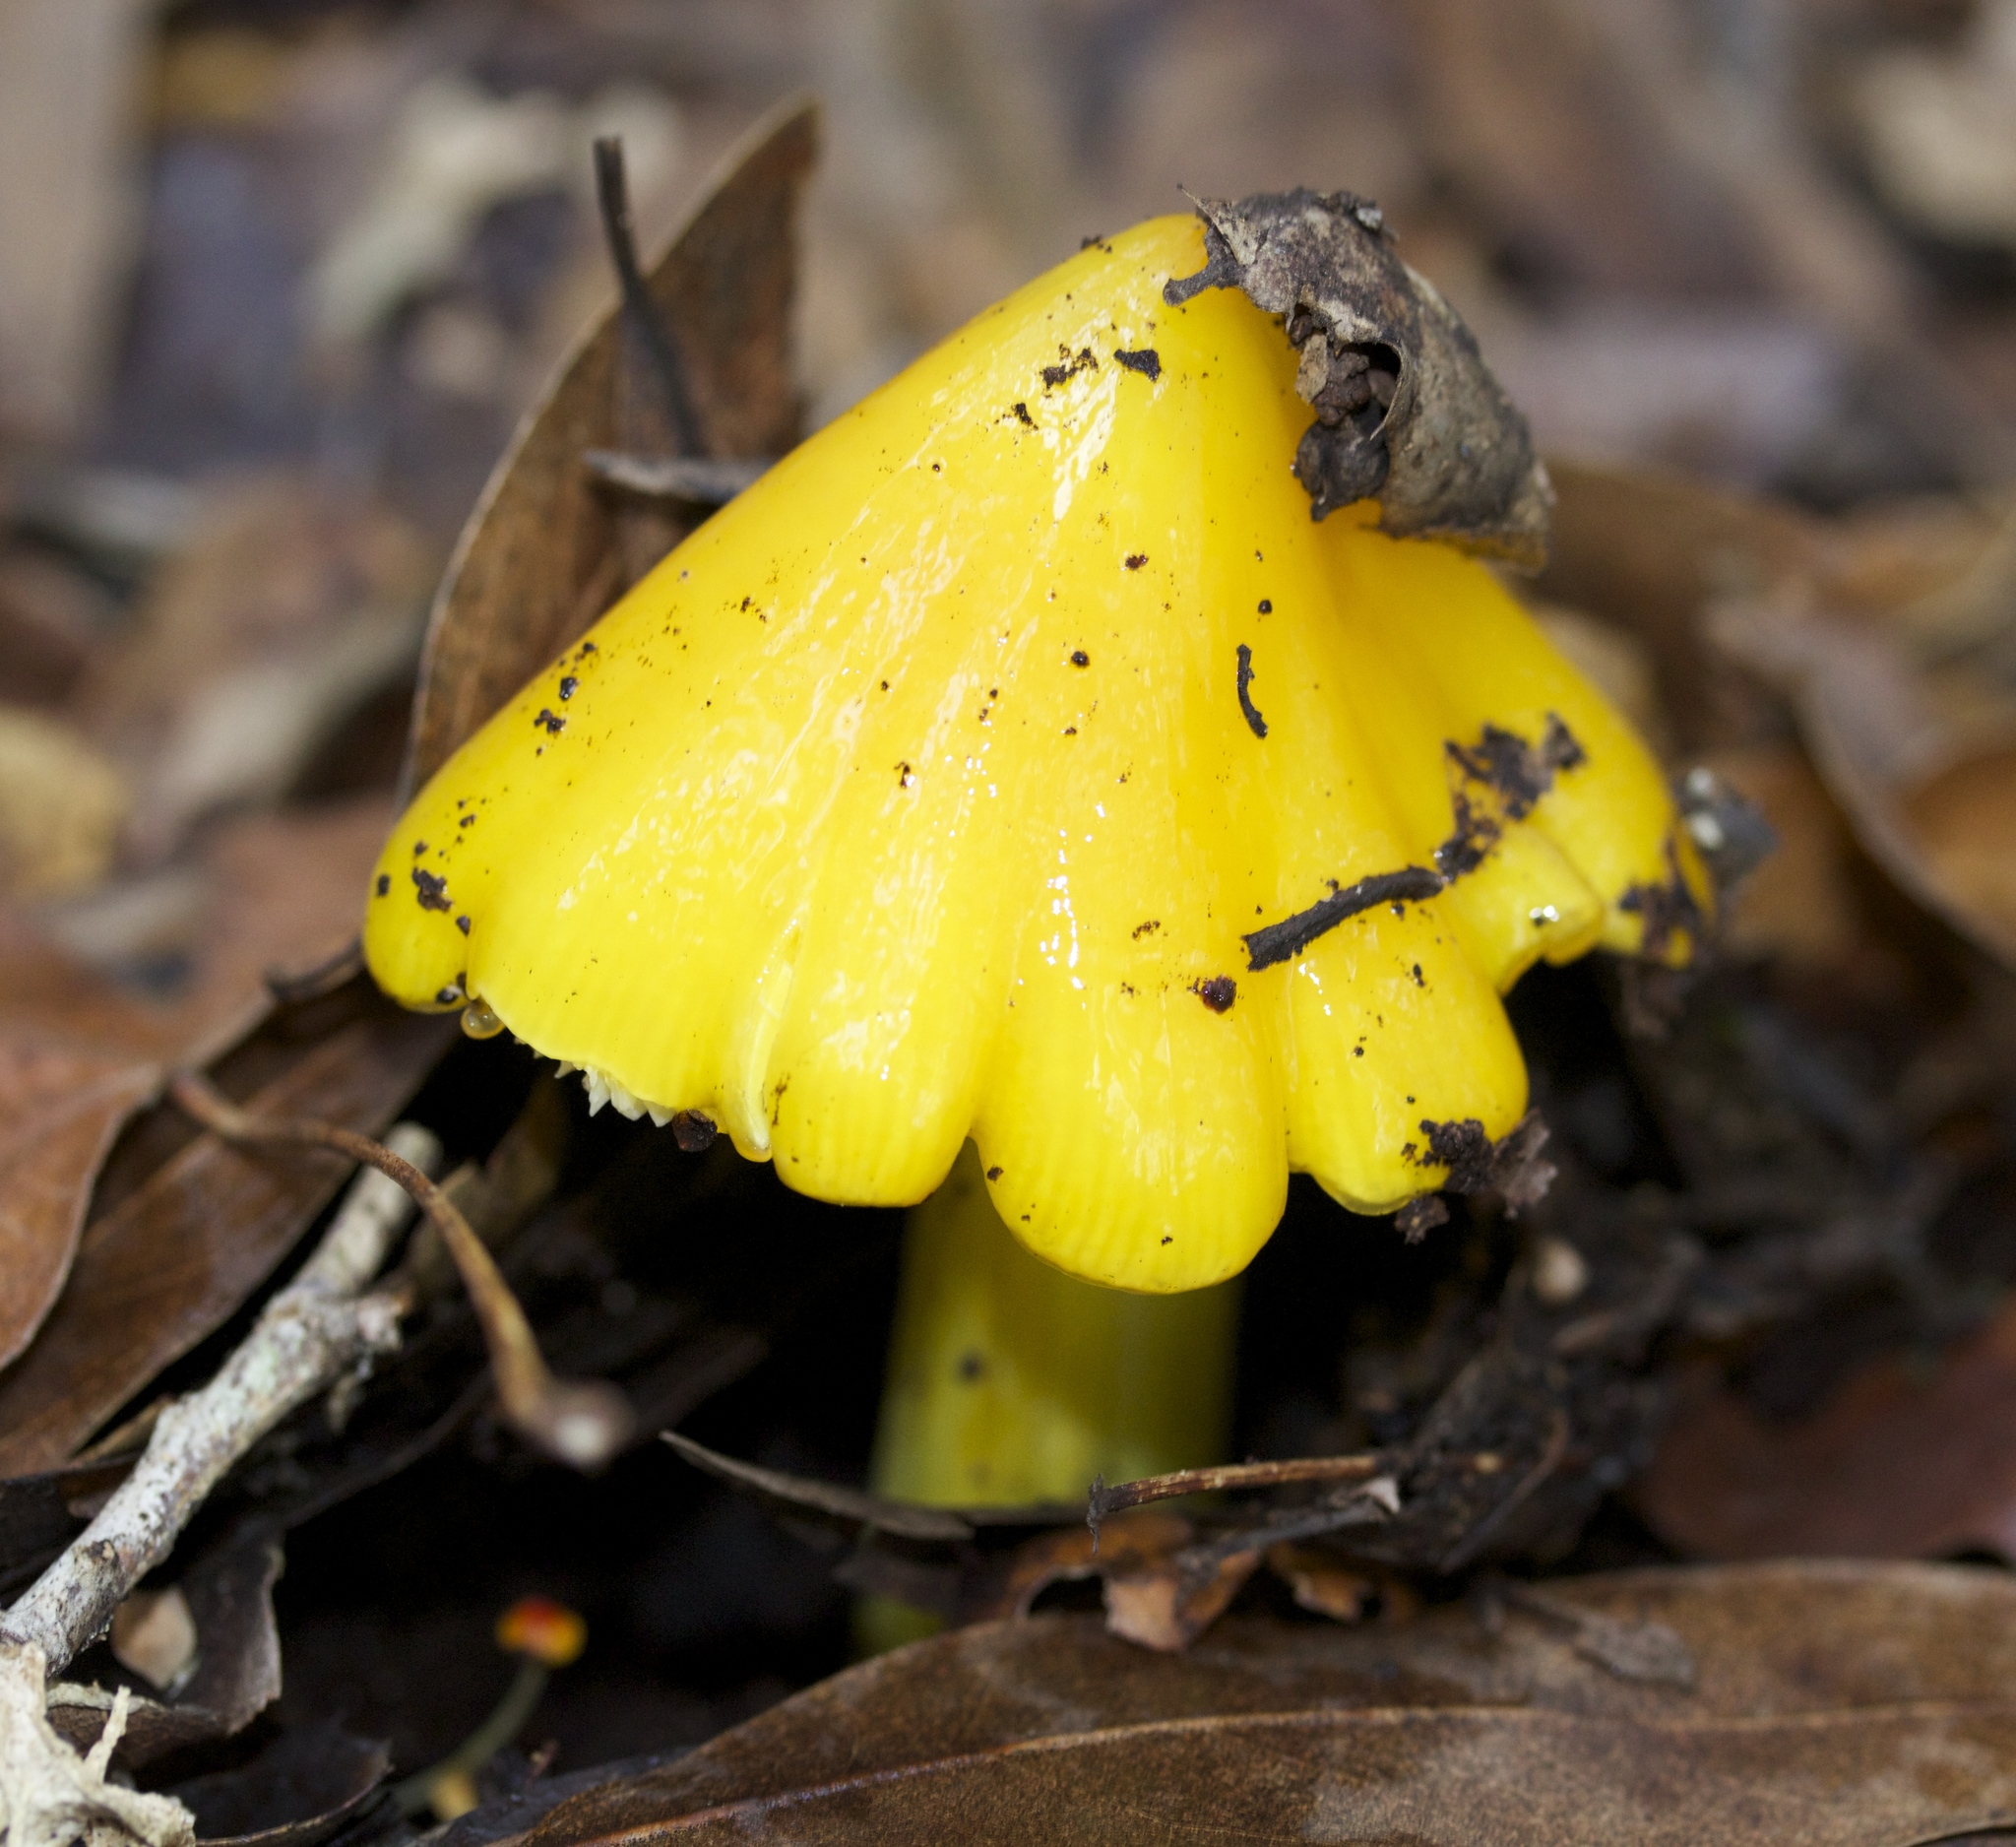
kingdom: Fungi
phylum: Basidiomycota
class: Agaricomycetes
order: Agaricales
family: Hygrophoraceae
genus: Hygrocybe
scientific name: Hygrocybe singeri
